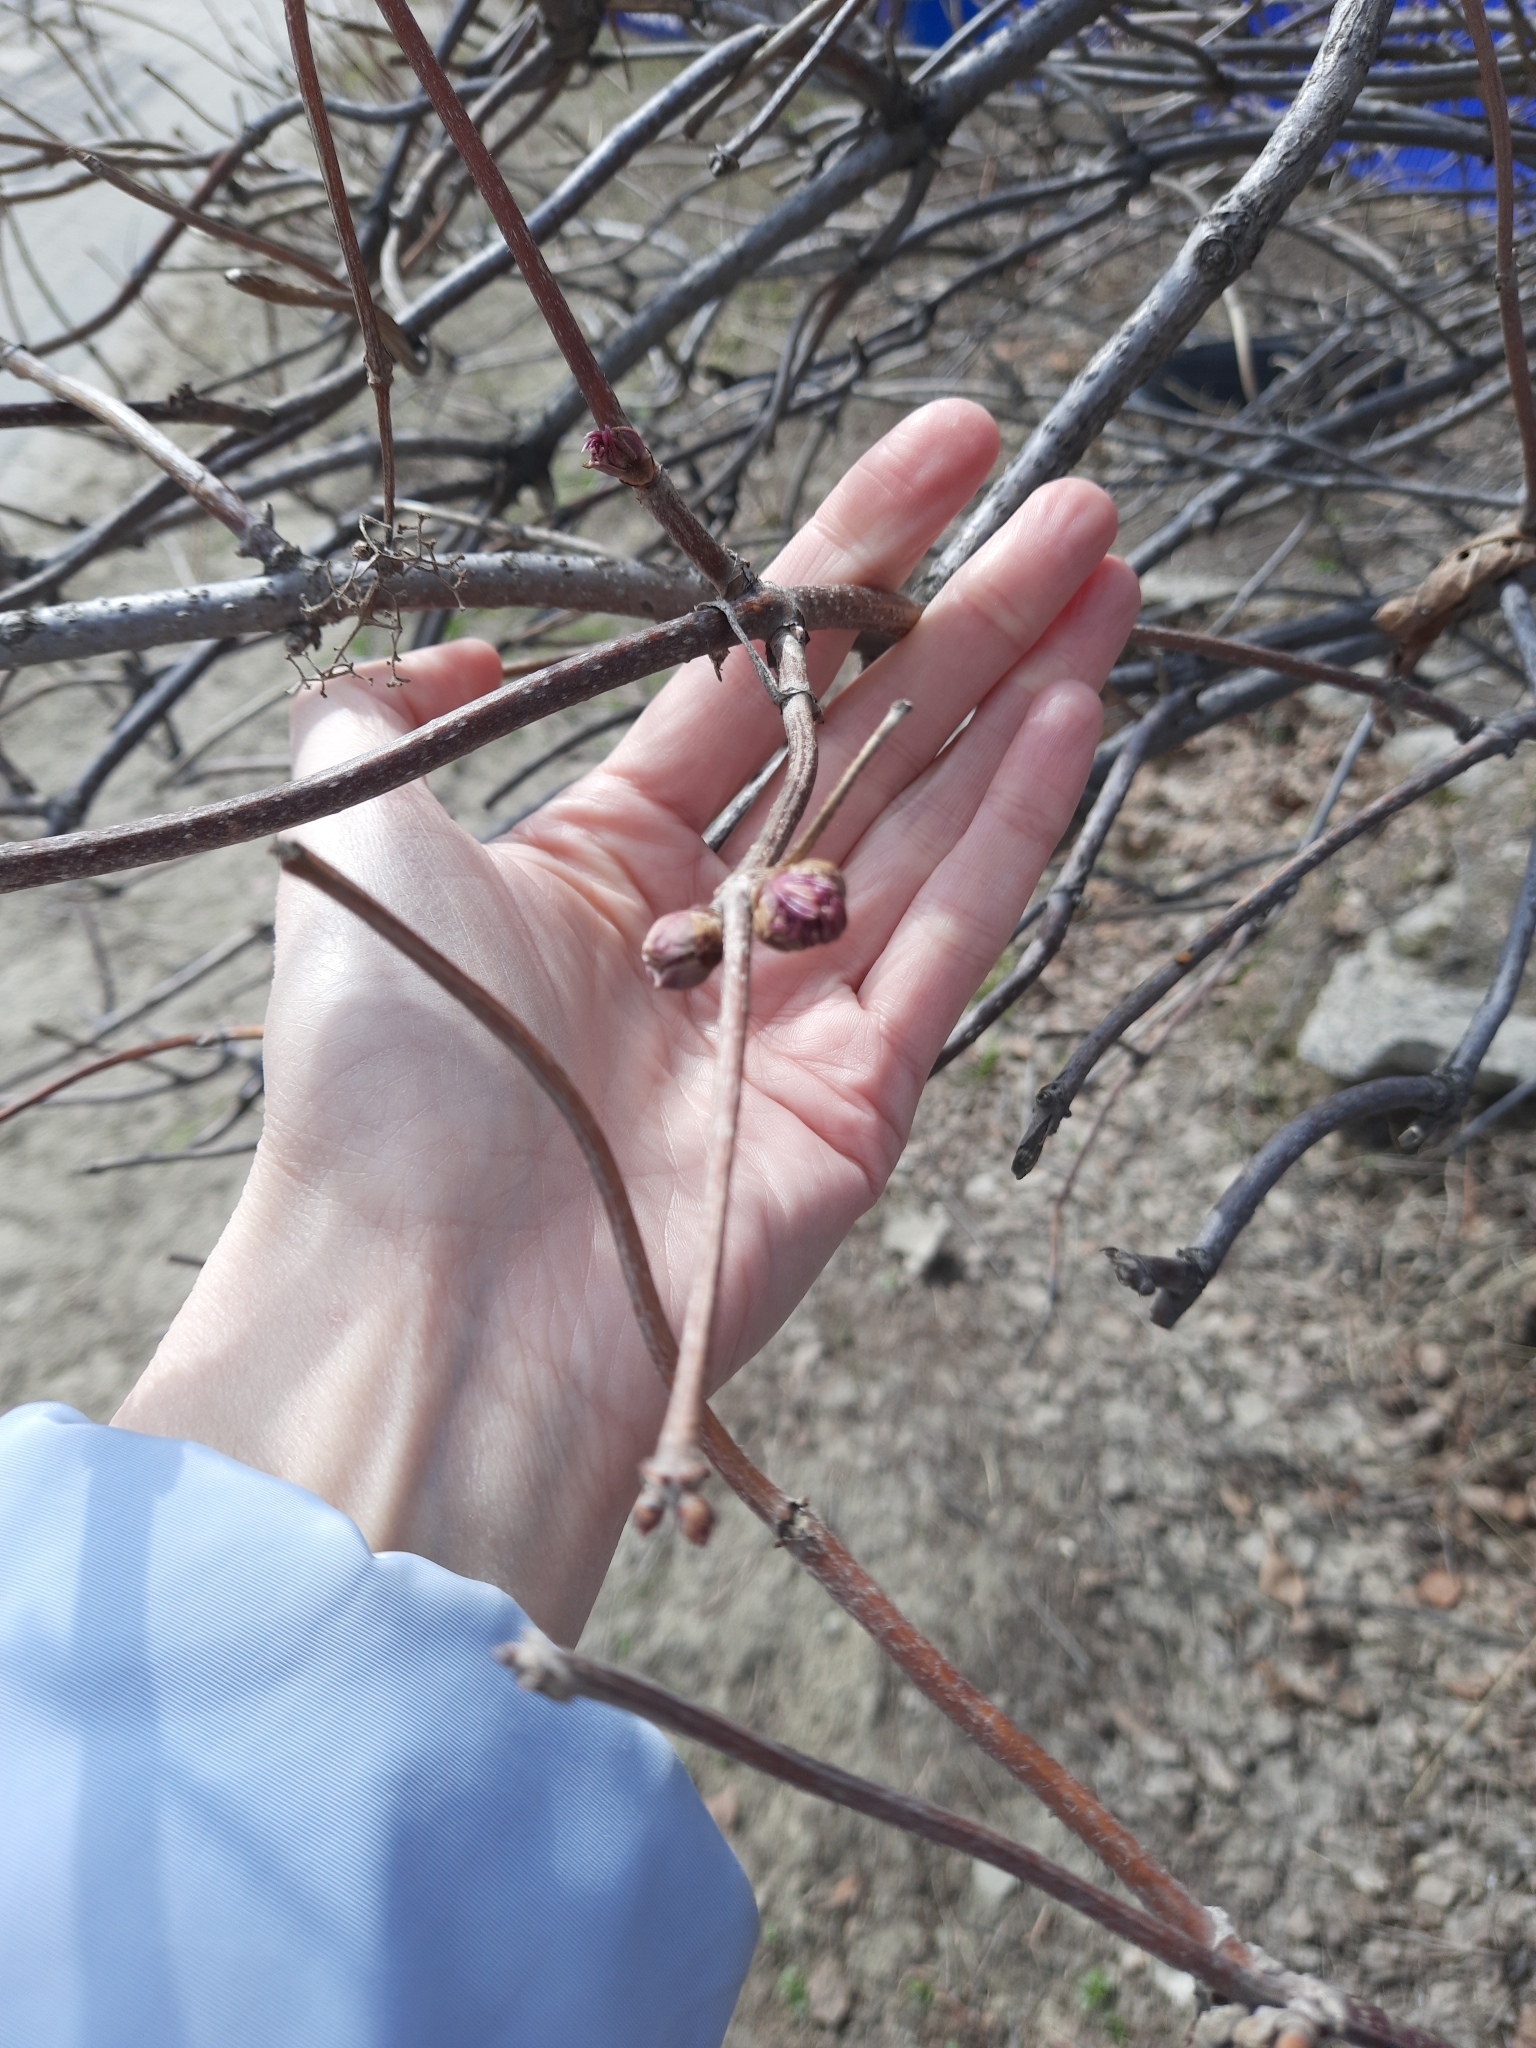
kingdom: Plantae
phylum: Tracheophyta
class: Magnoliopsida
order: Dipsacales
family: Viburnaceae
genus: Sambucus
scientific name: Sambucus sibirica
